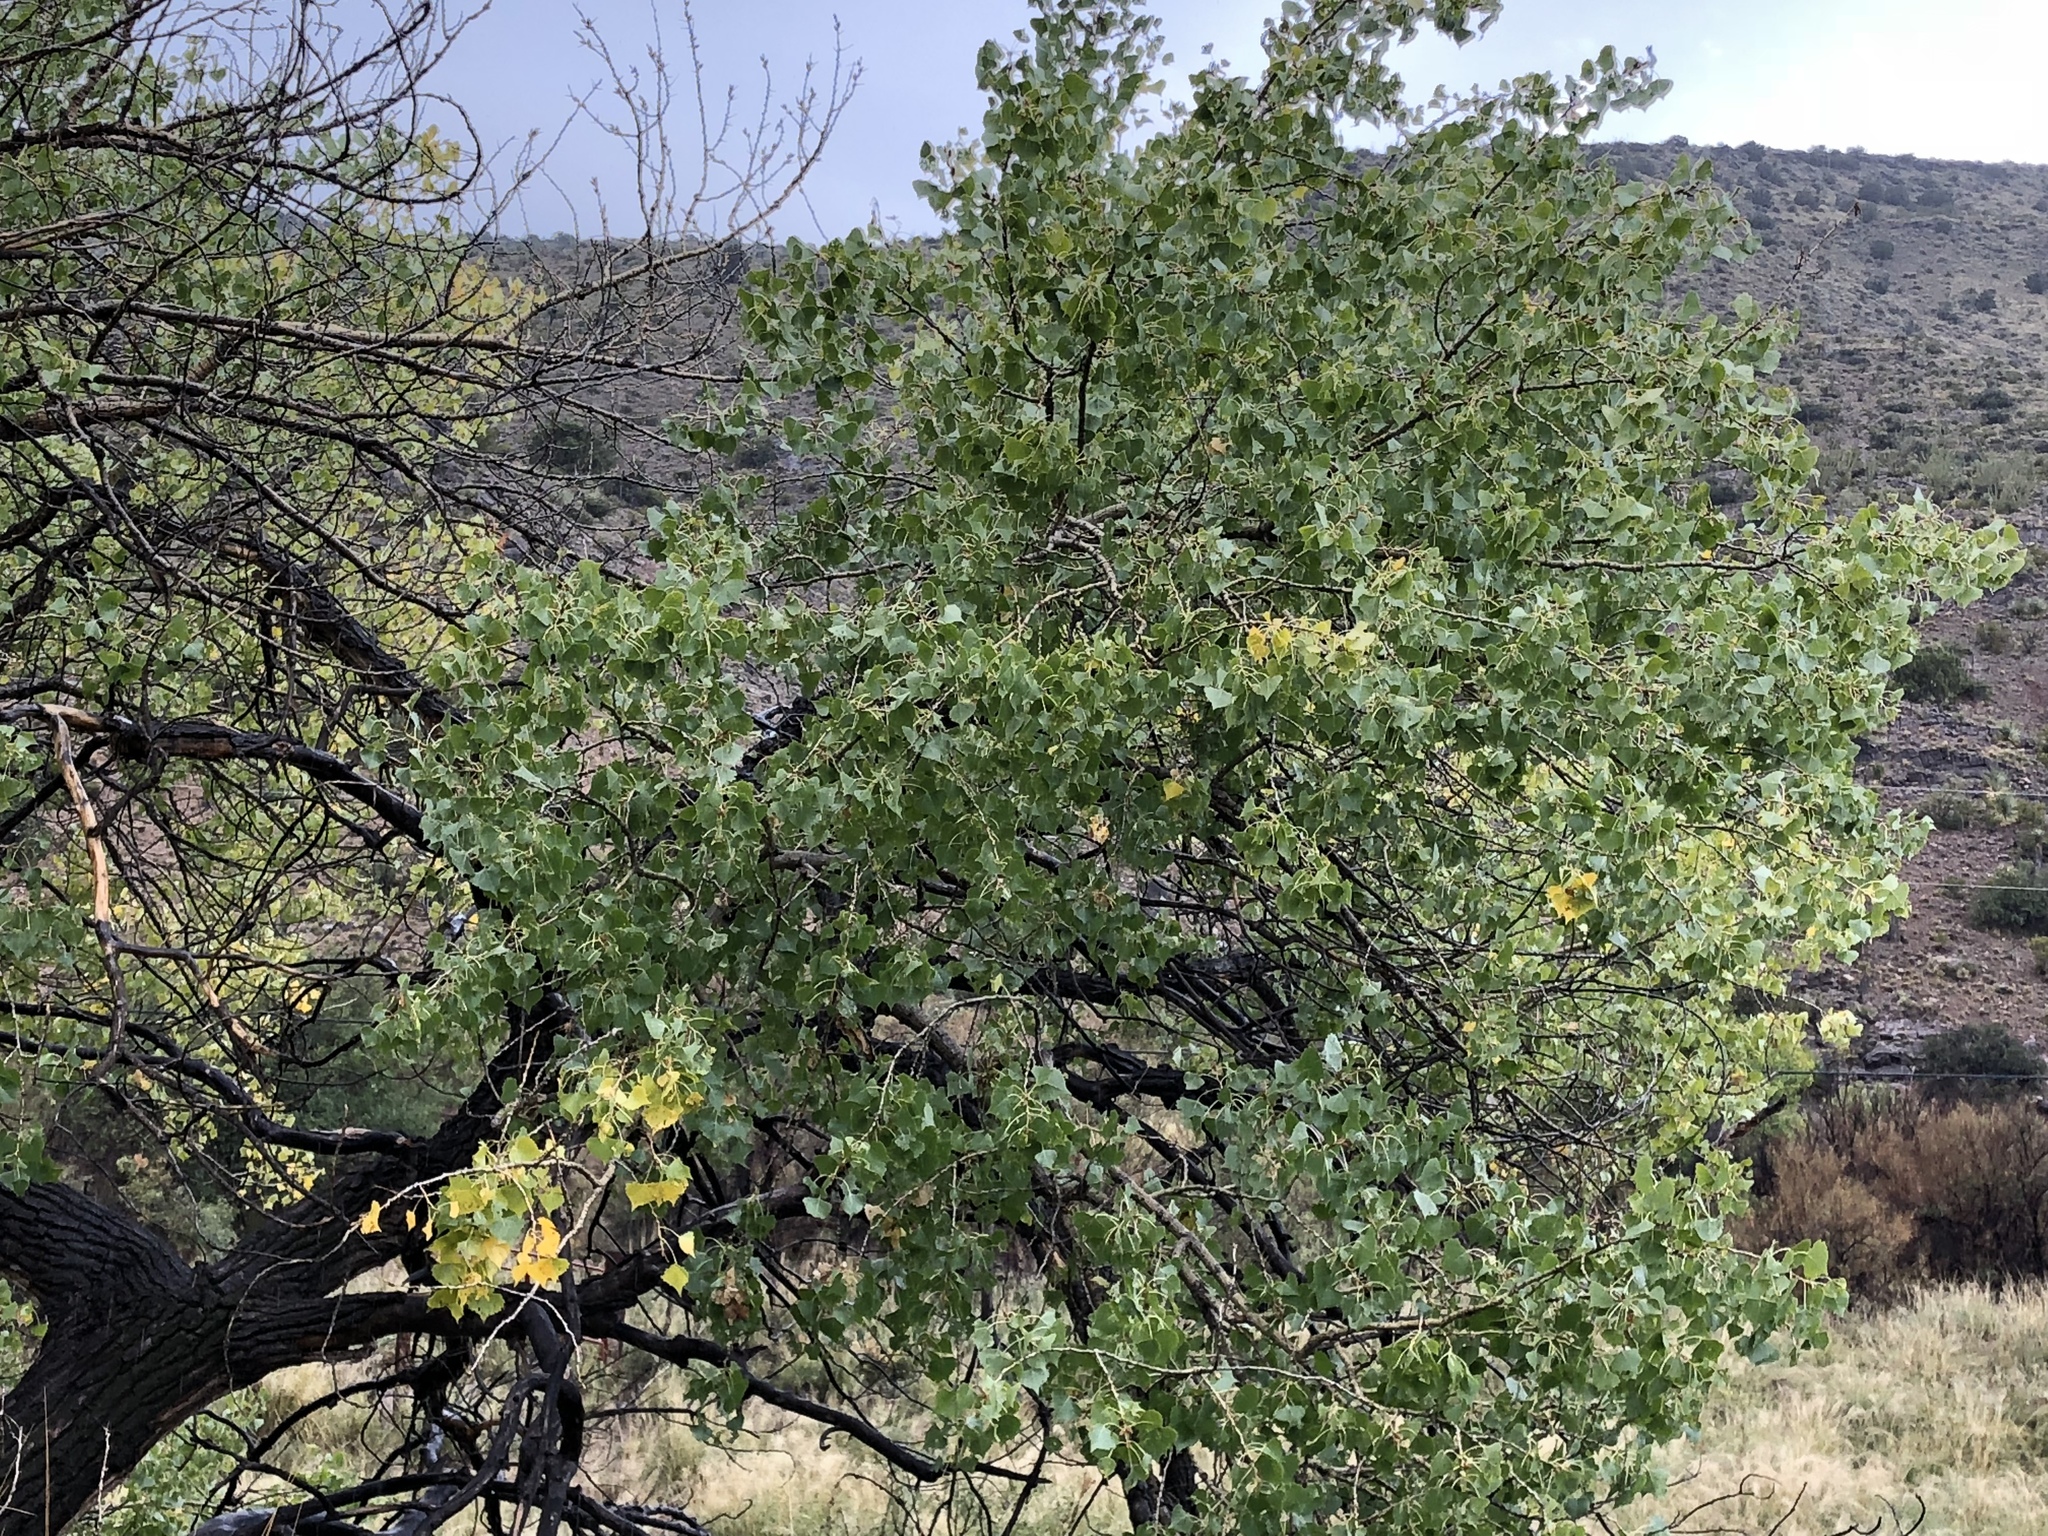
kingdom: Plantae
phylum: Tracheophyta
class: Magnoliopsida
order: Malpighiales
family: Salicaceae
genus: Populus
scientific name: Populus fremontii
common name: Fremont's cottonwood
